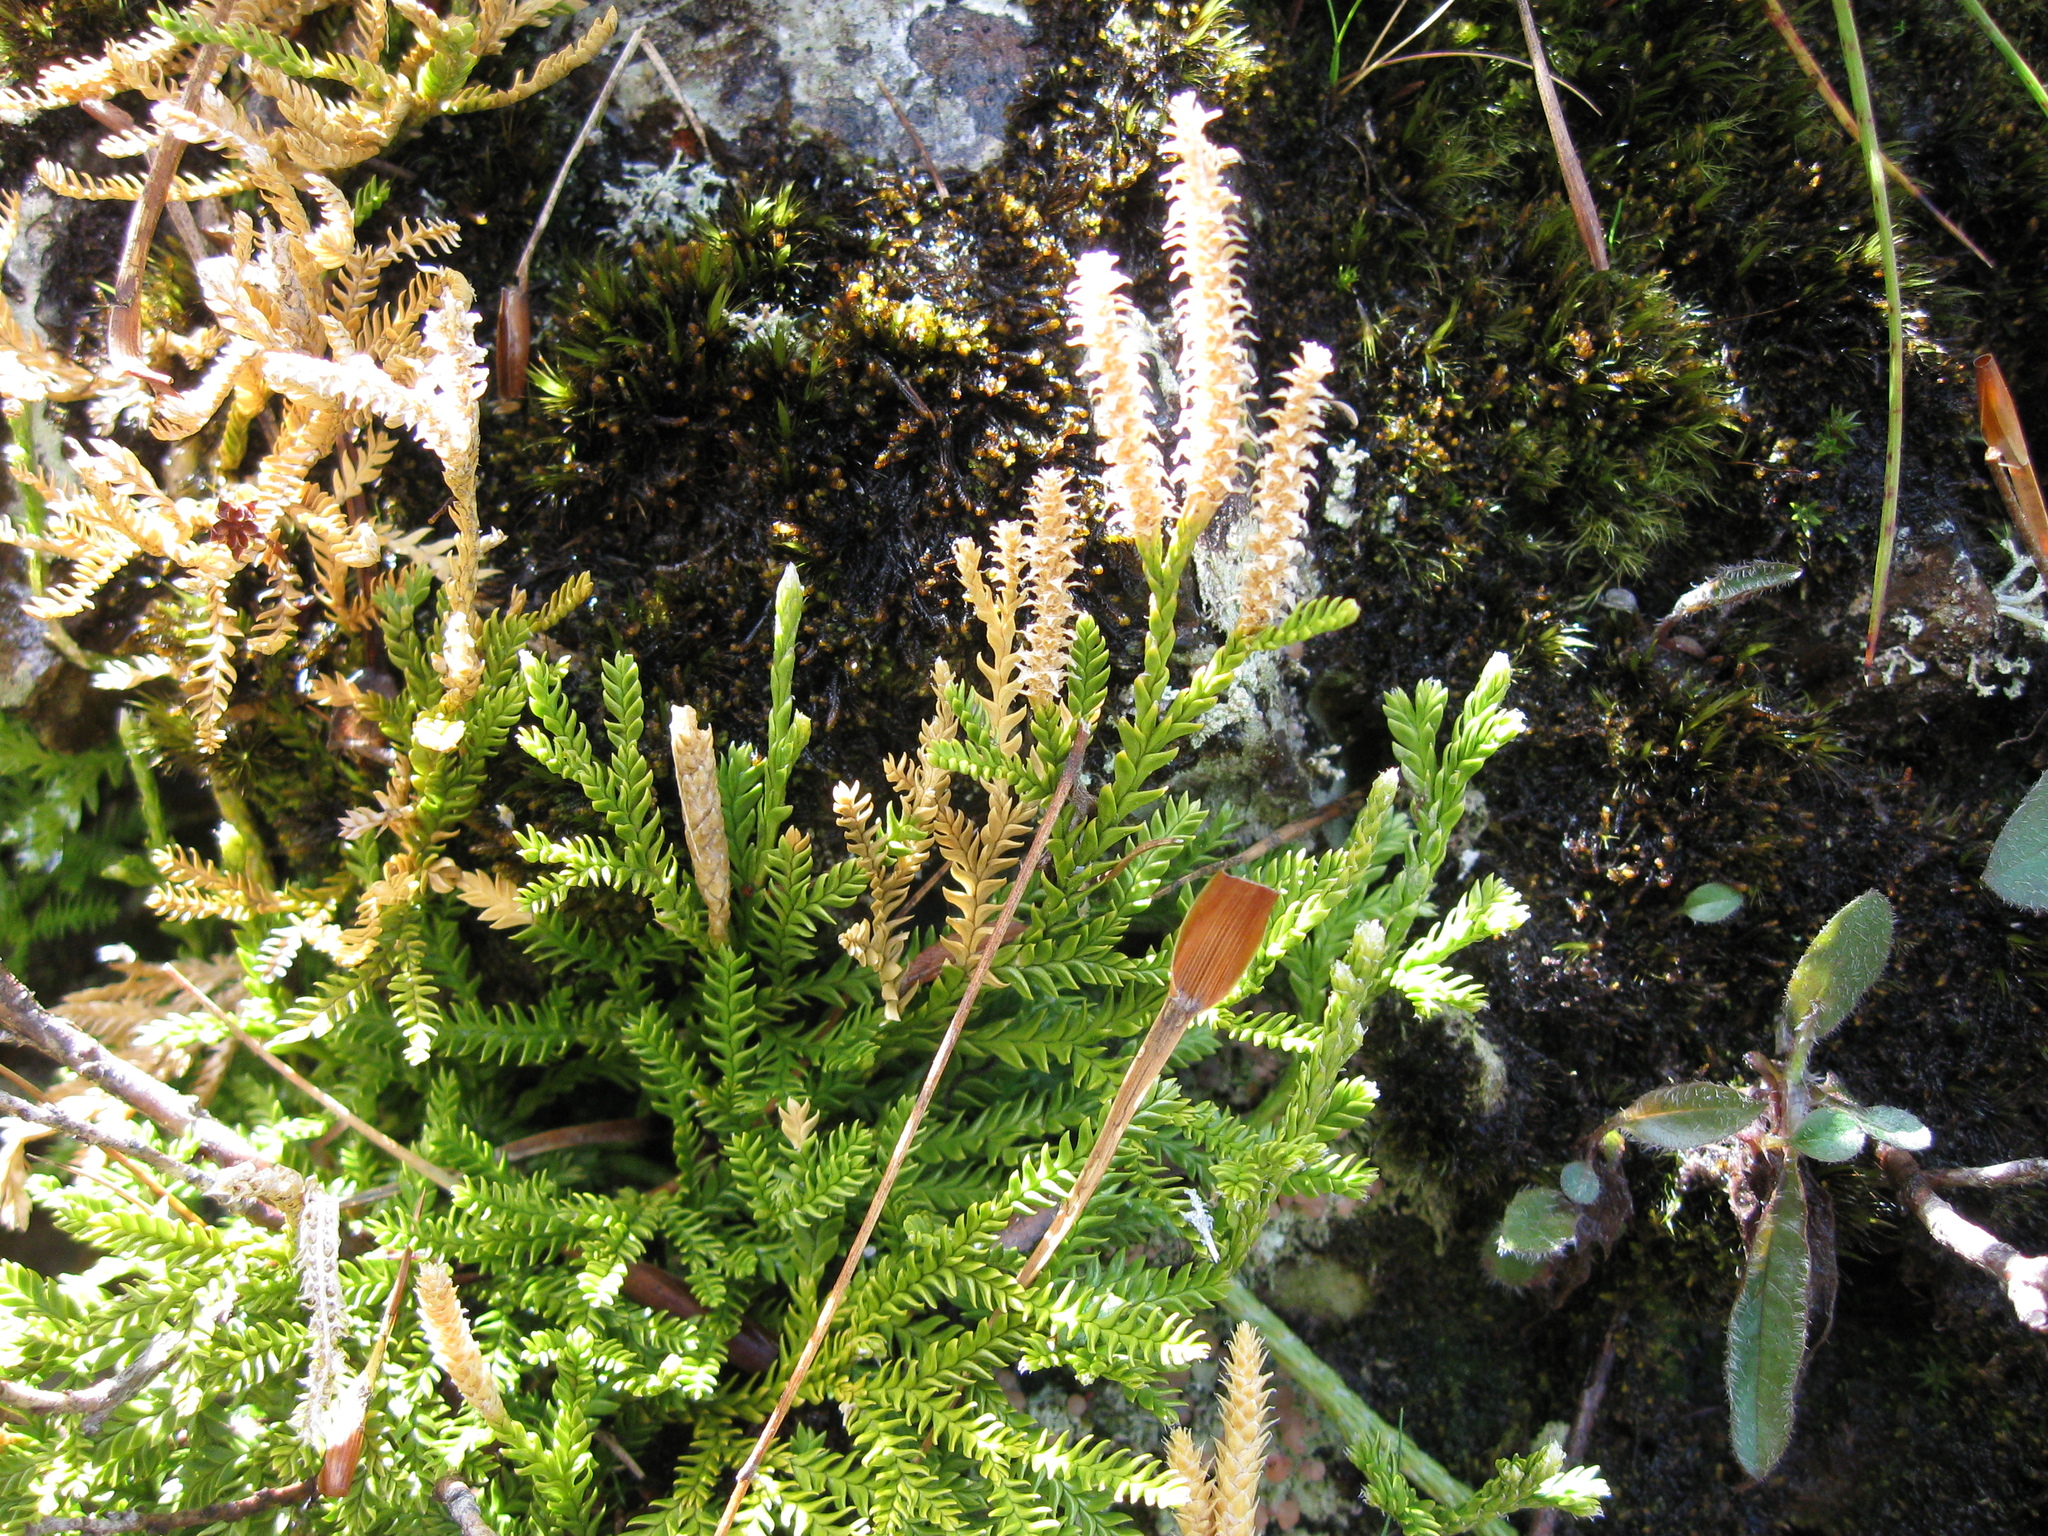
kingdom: Plantae
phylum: Tracheophyta
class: Lycopodiopsida
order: Lycopodiales
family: Lycopodiaceae
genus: Diphasium
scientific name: Diphasium scariosum
